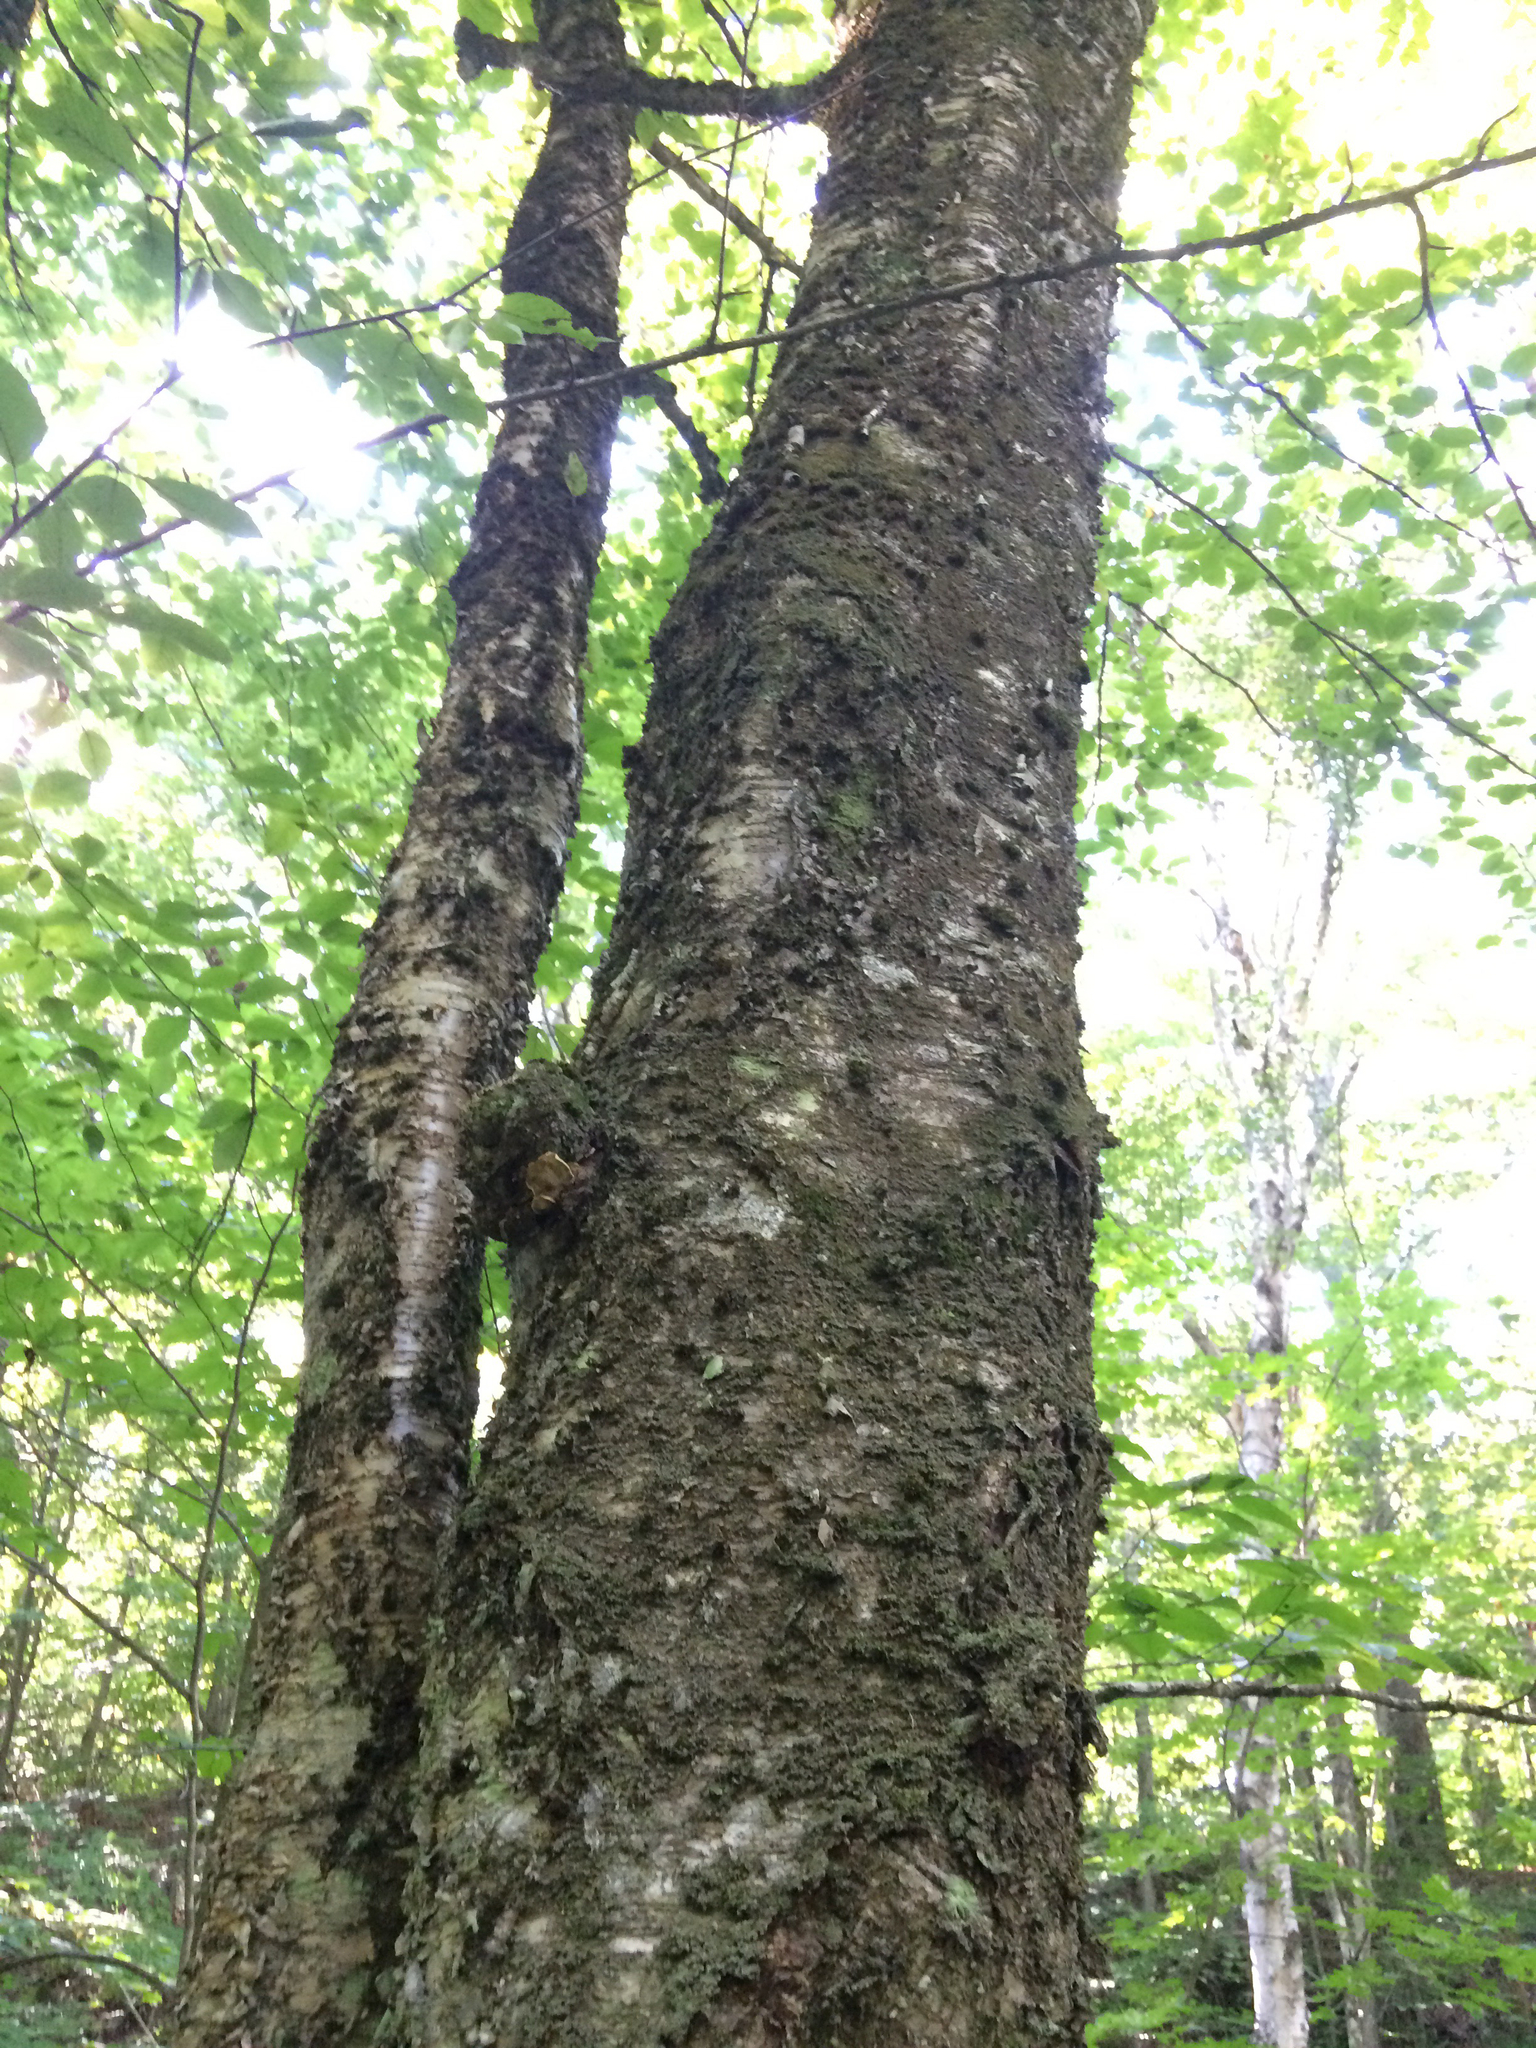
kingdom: Plantae
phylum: Tracheophyta
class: Magnoliopsida
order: Fagales
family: Betulaceae
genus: Betula
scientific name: Betula alleghaniensis
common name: Yellow birch
